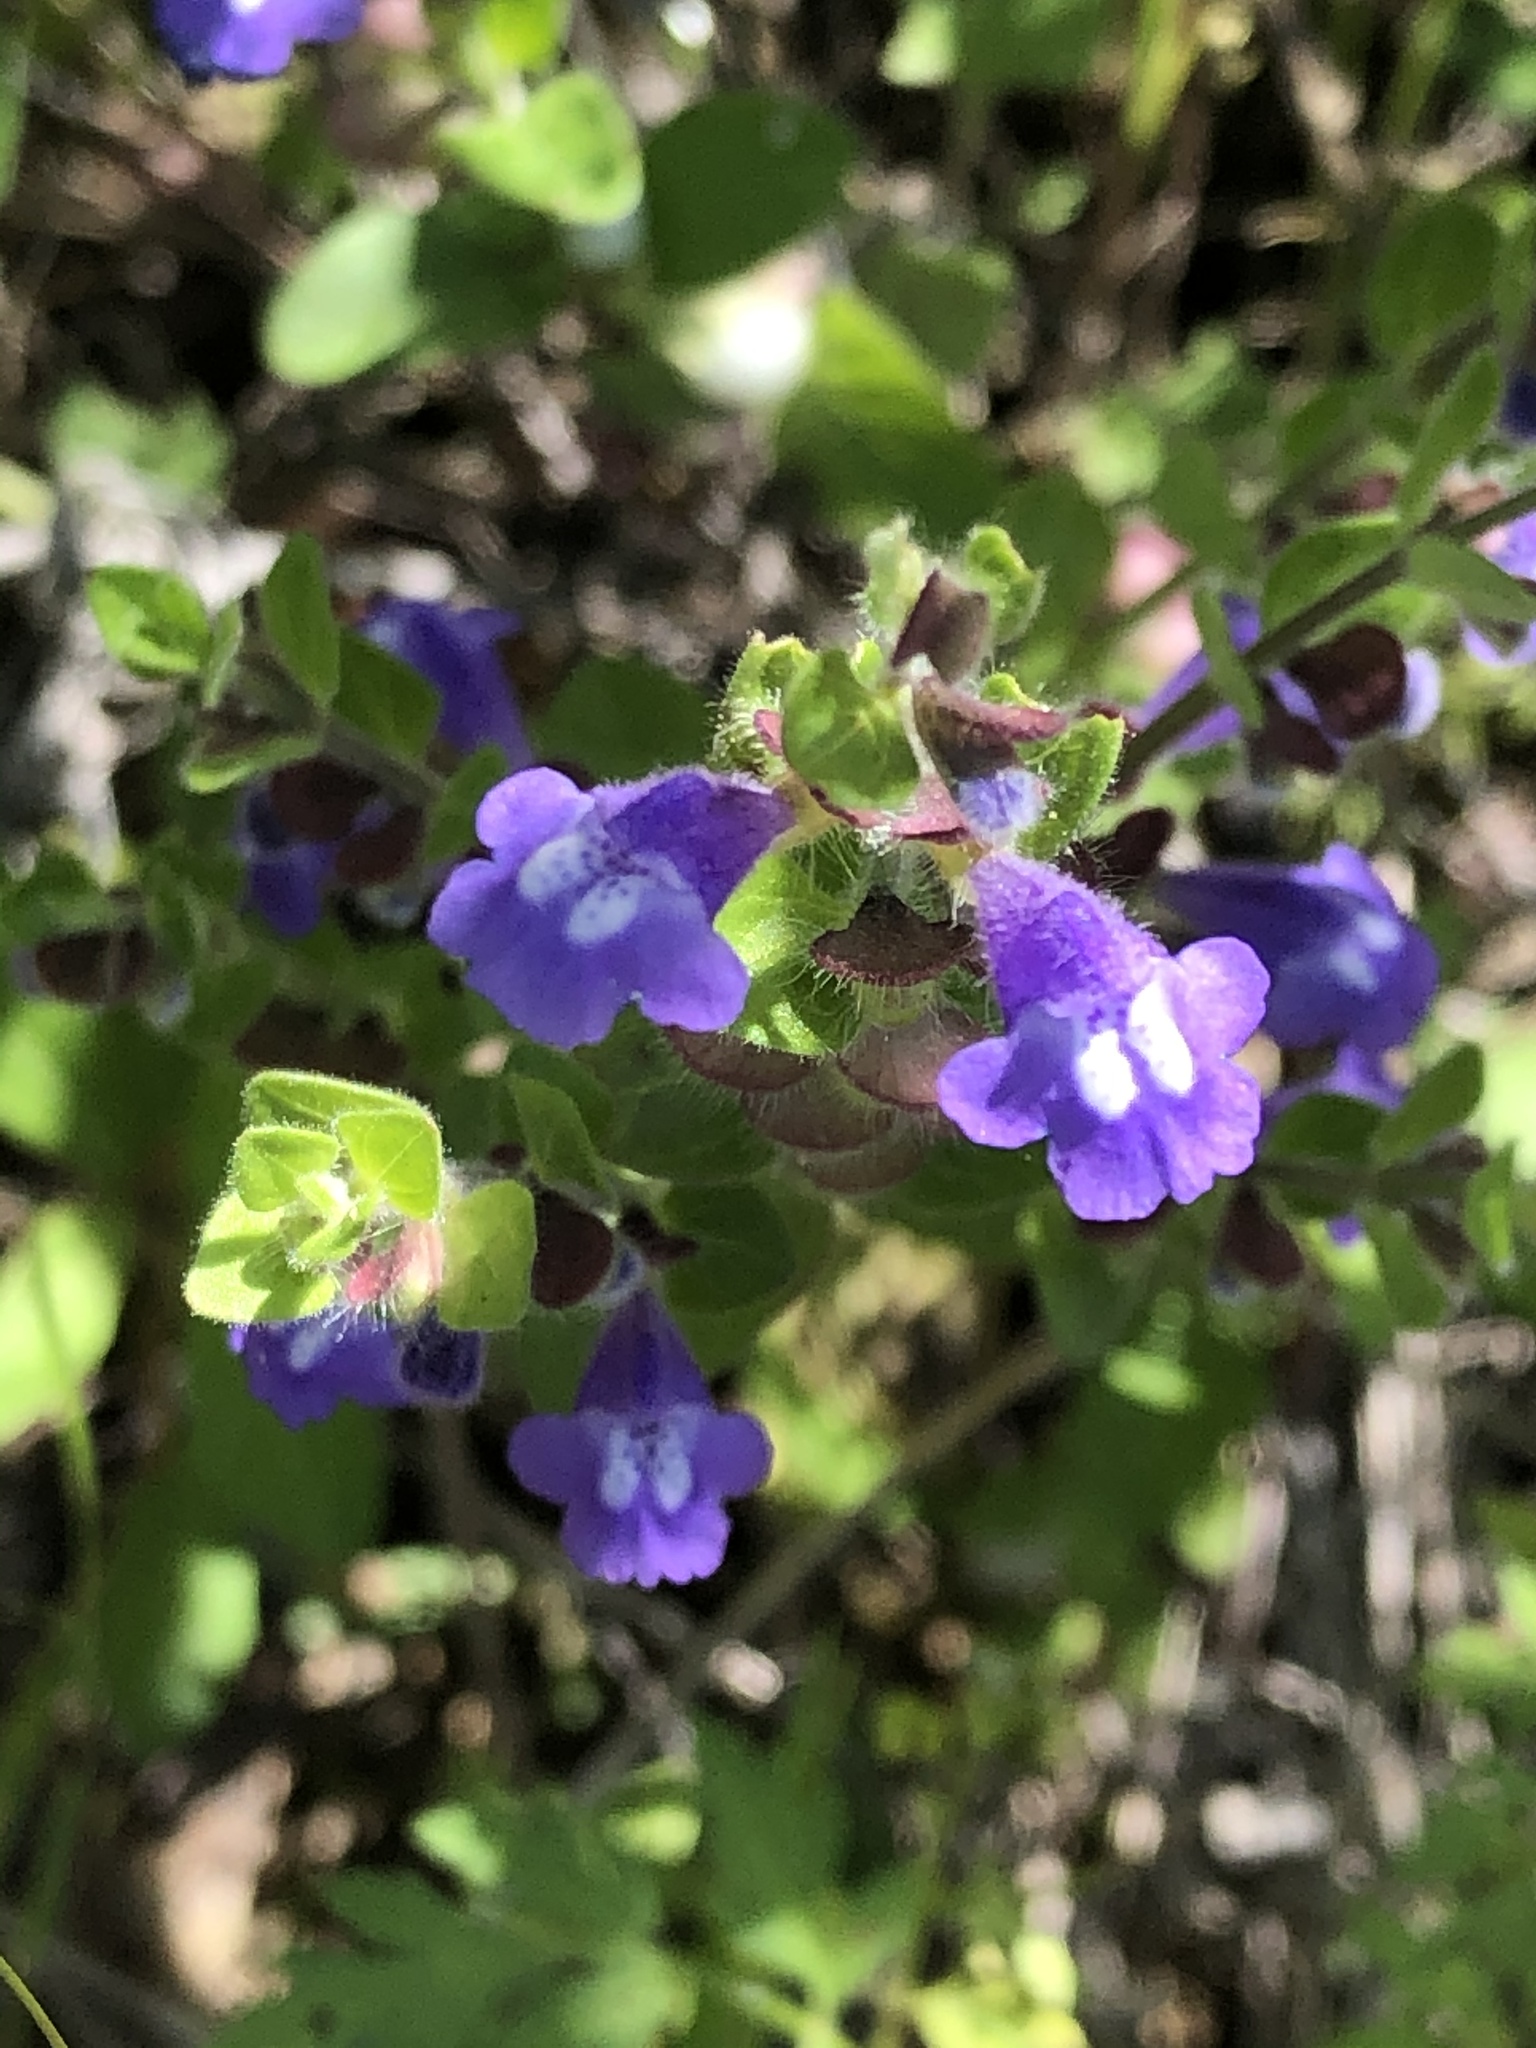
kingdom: Plantae
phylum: Tracheophyta
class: Magnoliopsida
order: Lamiales
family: Lamiaceae
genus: Scutellaria
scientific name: Scutellaria drummondii
